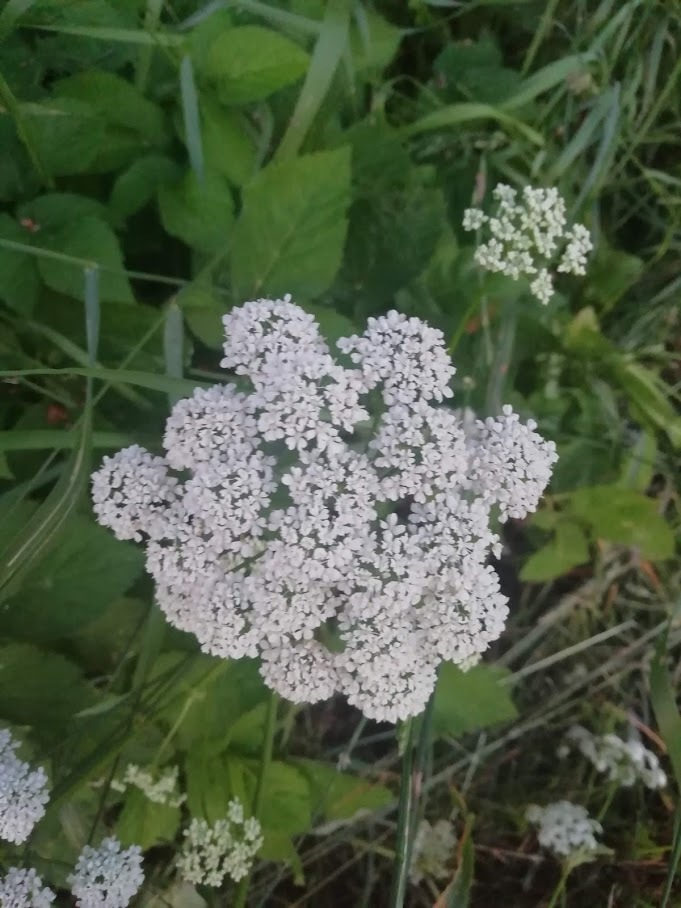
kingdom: Plantae
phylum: Tracheophyta
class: Magnoliopsida
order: Apiales
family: Apiaceae
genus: Aegopodium
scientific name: Aegopodium podagraria
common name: Ground-elder
